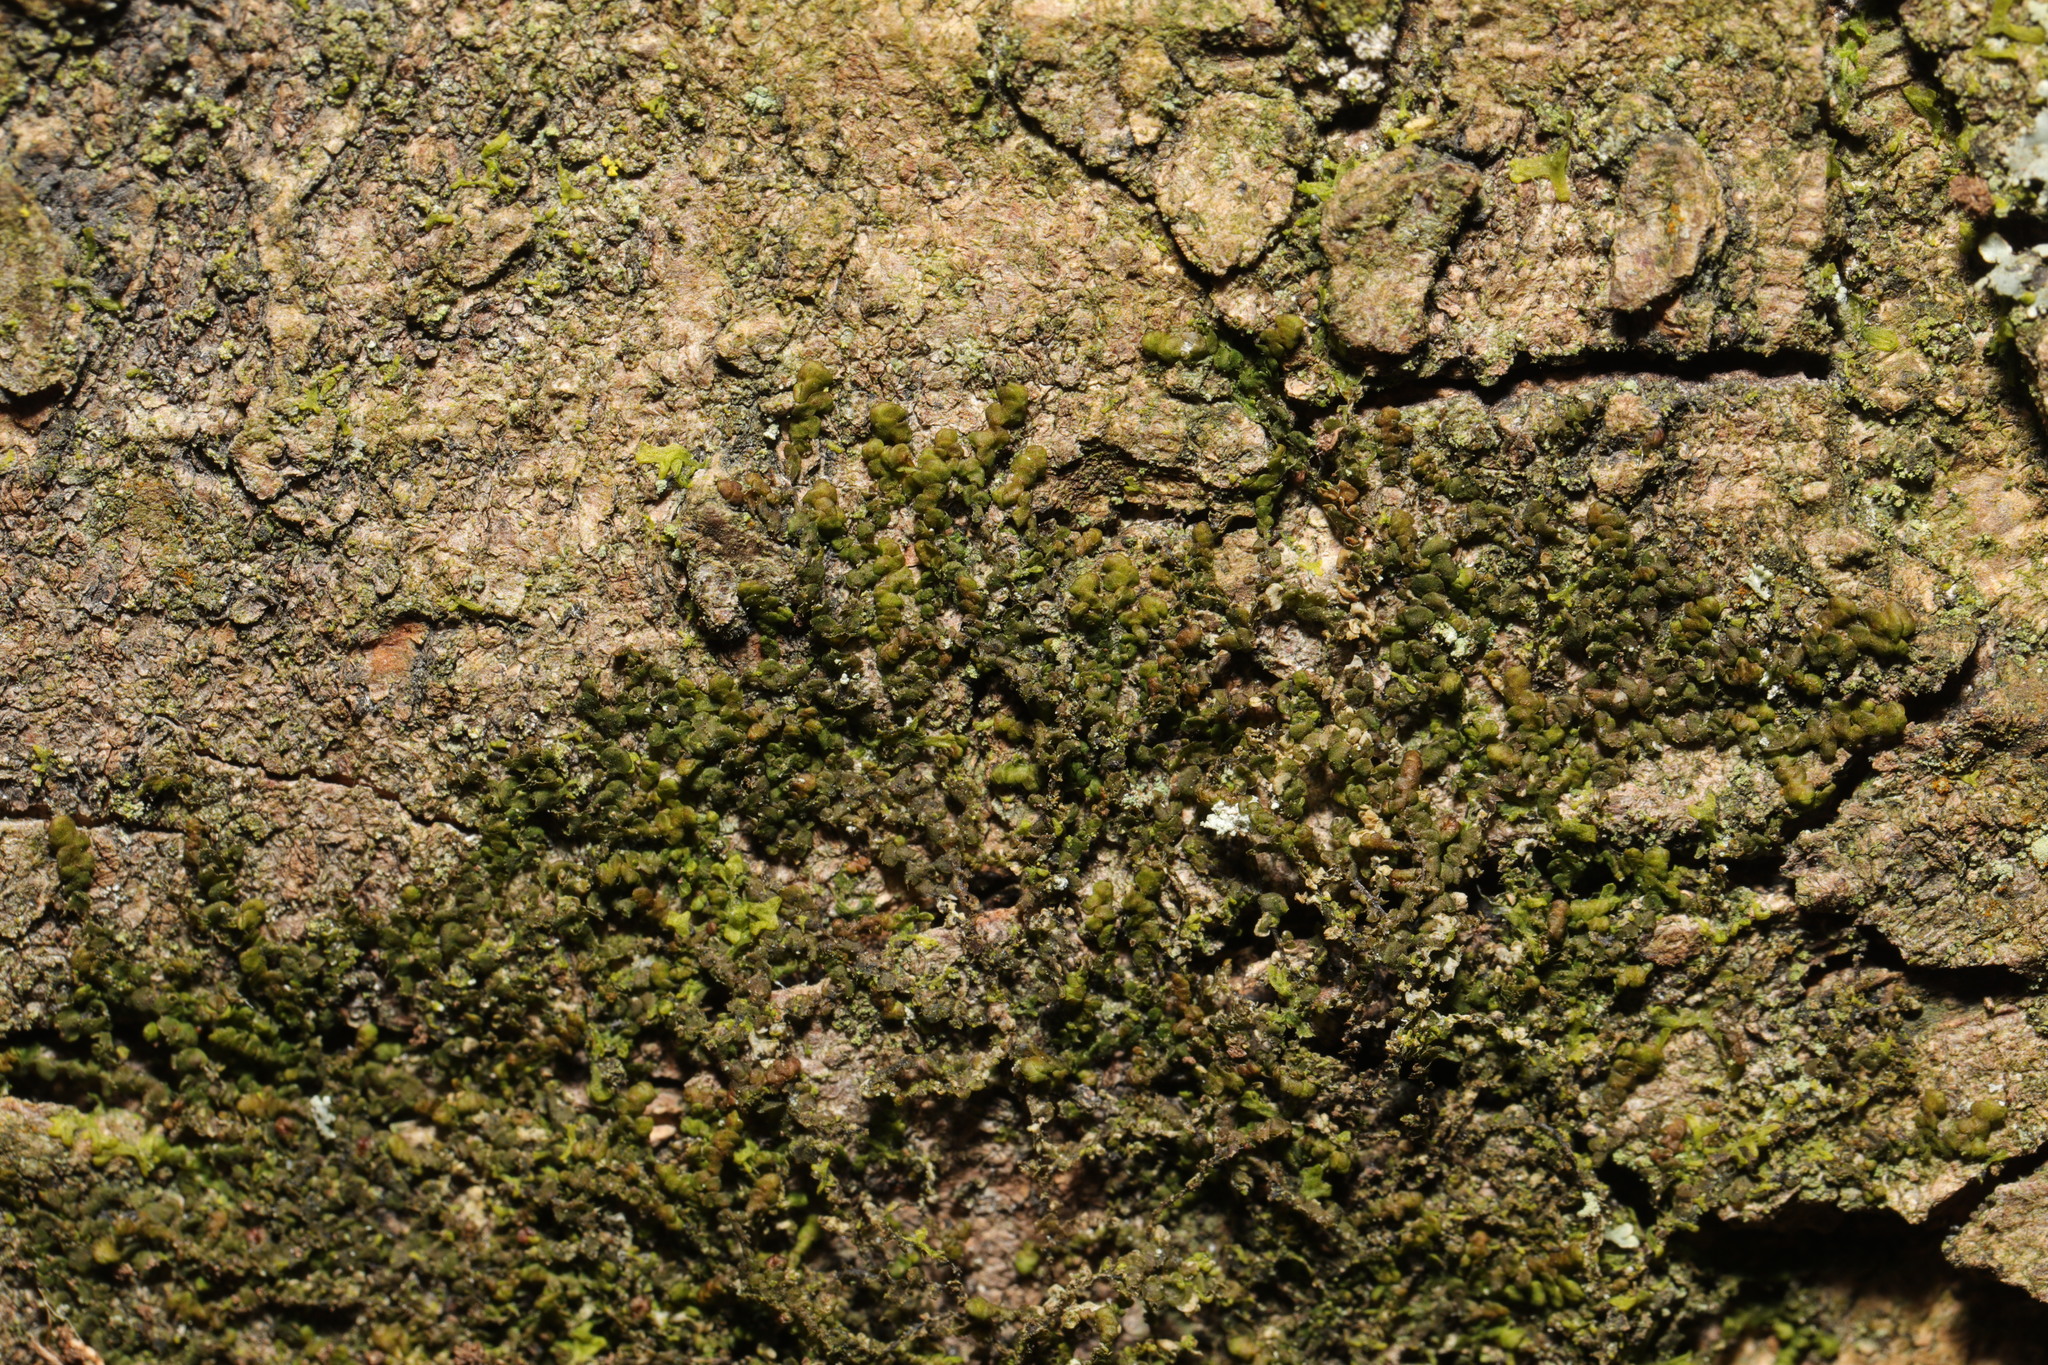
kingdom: Plantae
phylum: Marchantiophyta
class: Jungermanniopsida
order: Porellales
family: Frullaniaceae
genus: Frullania
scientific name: Frullania dilatata
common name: Dilated scalewort
